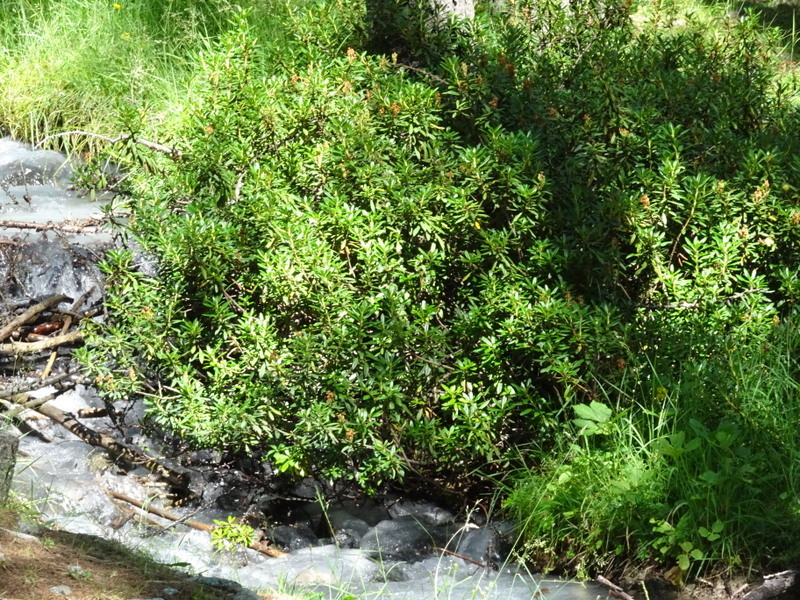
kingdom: Plantae
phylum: Tracheophyta
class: Magnoliopsida
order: Ericales
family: Ericaceae
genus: Rhododendron
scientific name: Rhododendron ferrugineum
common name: Alpenrose
